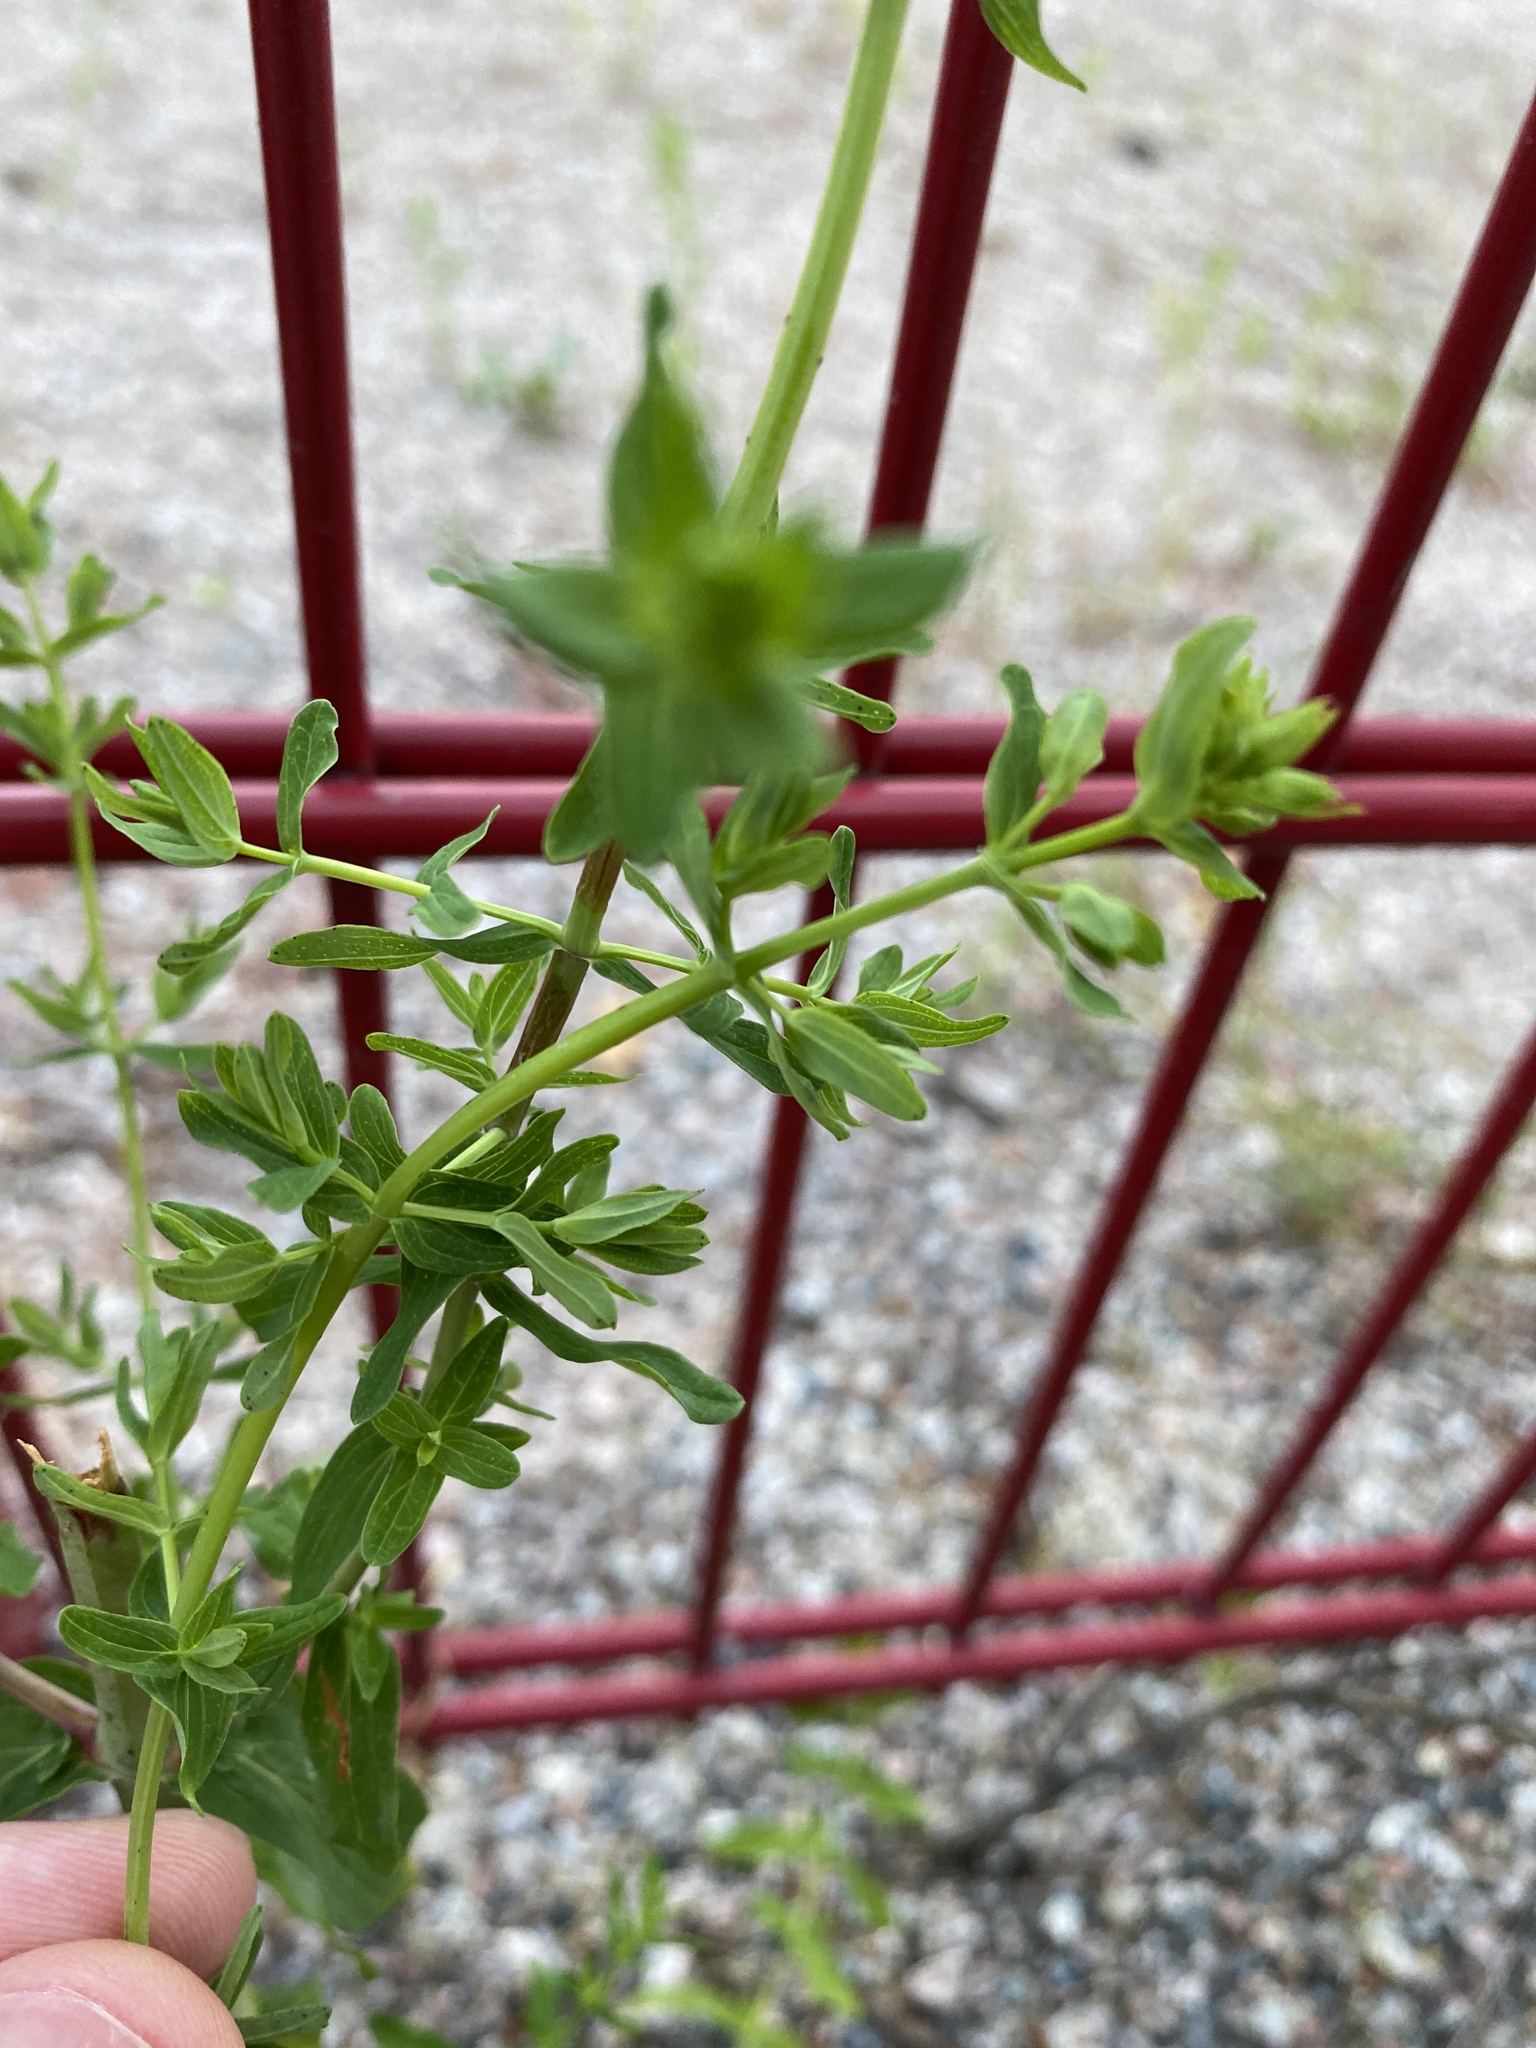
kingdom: Plantae
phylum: Tracheophyta
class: Magnoliopsida
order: Malpighiales
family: Hypericaceae
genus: Hypericum
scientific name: Hypericum perforatum
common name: Common st. johnswort
